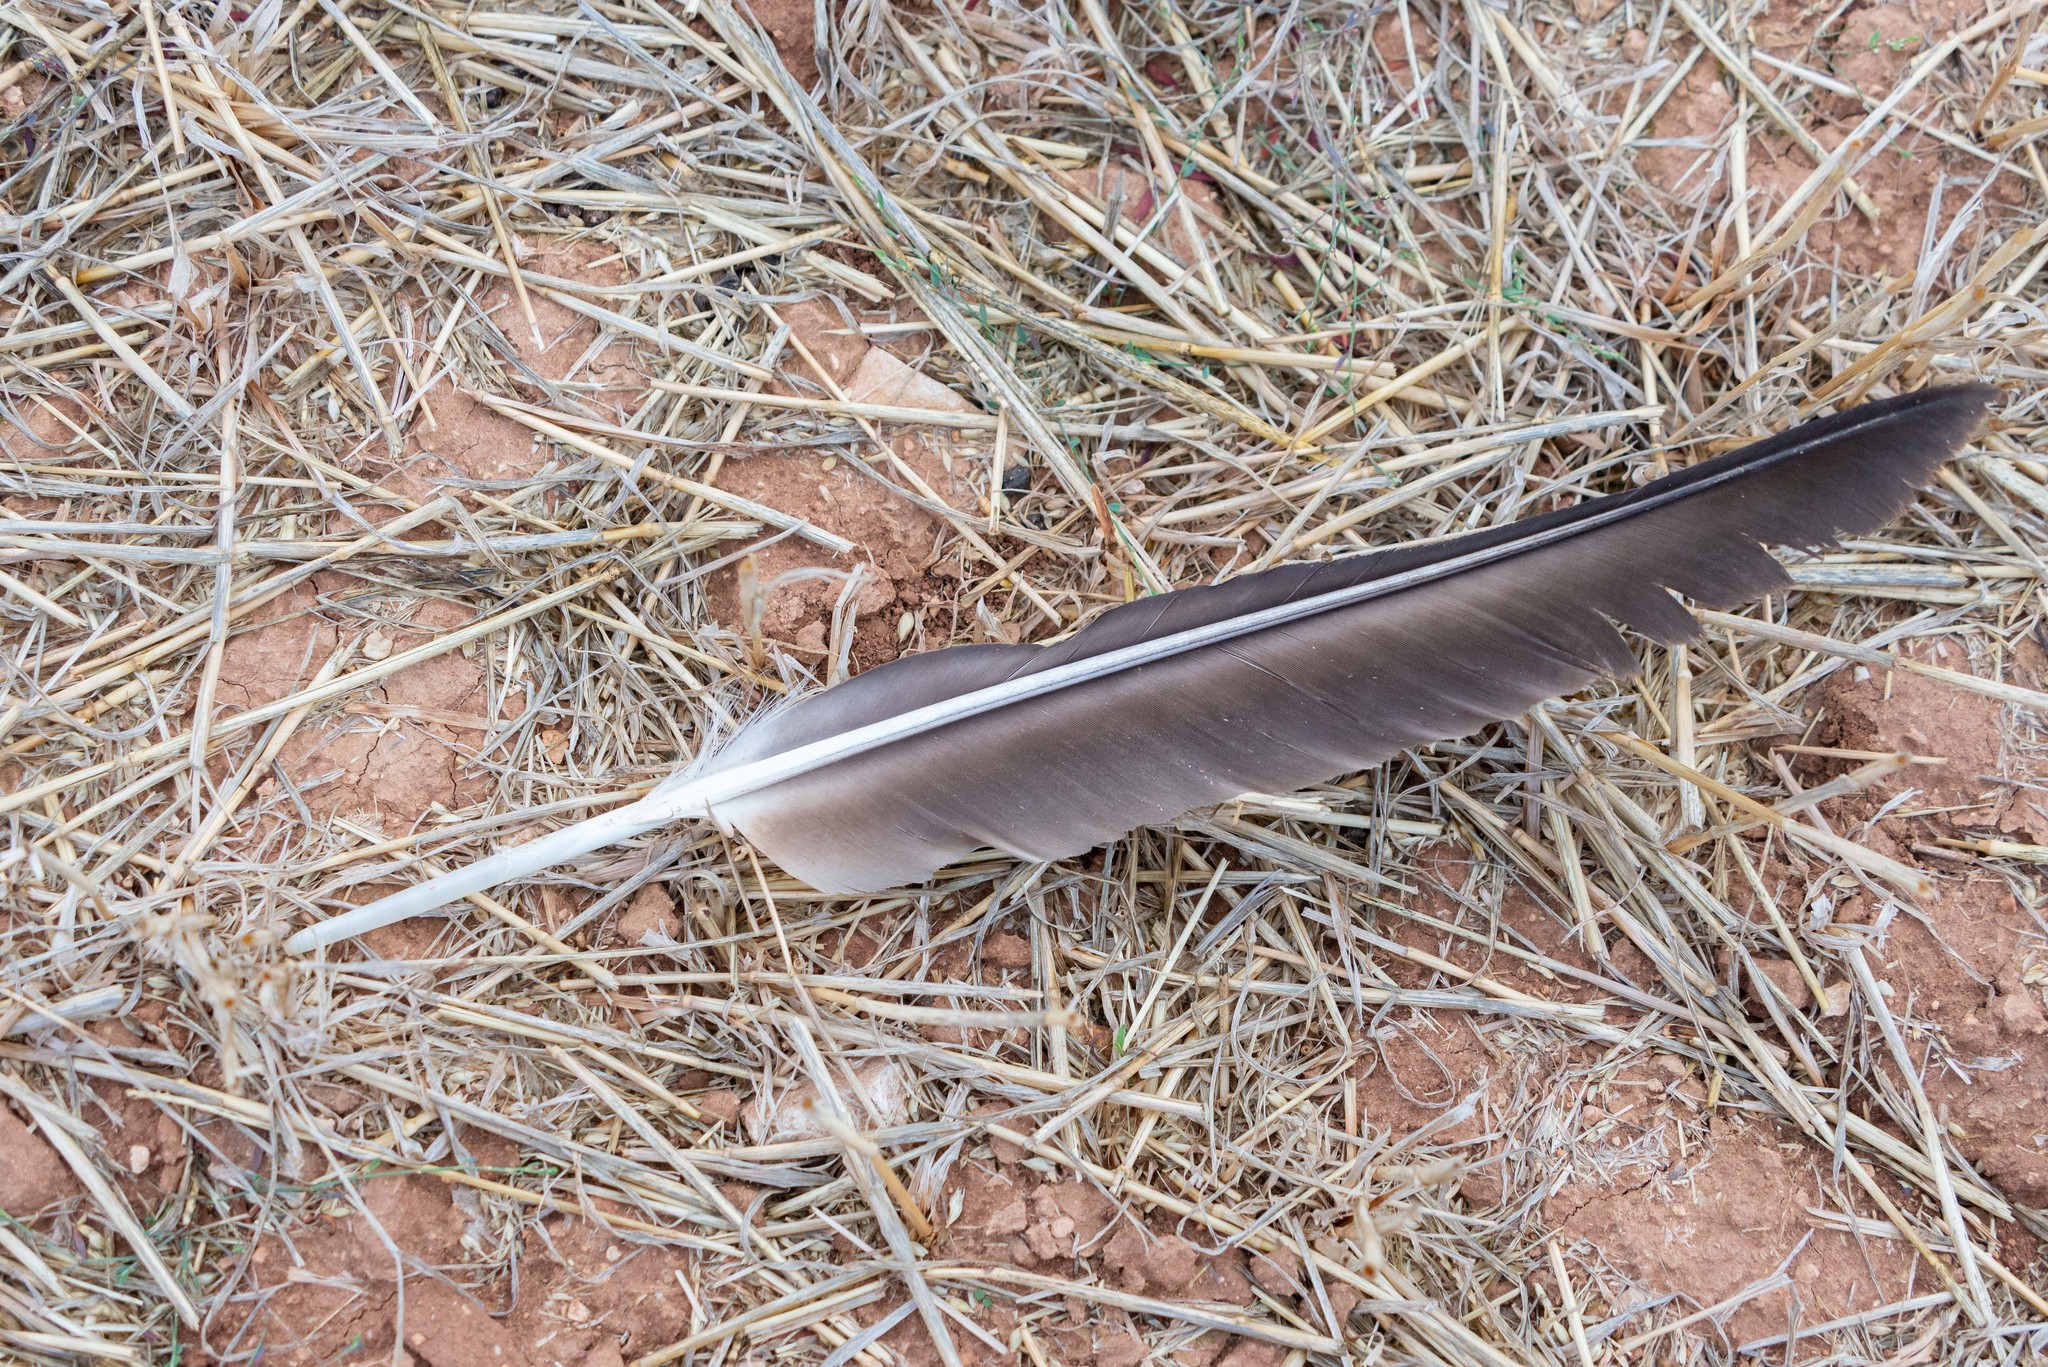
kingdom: Animalia
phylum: Chordata
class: Aves
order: Accipitriformes
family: Accipitridae
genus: Gyps
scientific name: Gyps fulvus
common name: Griffon vulture
